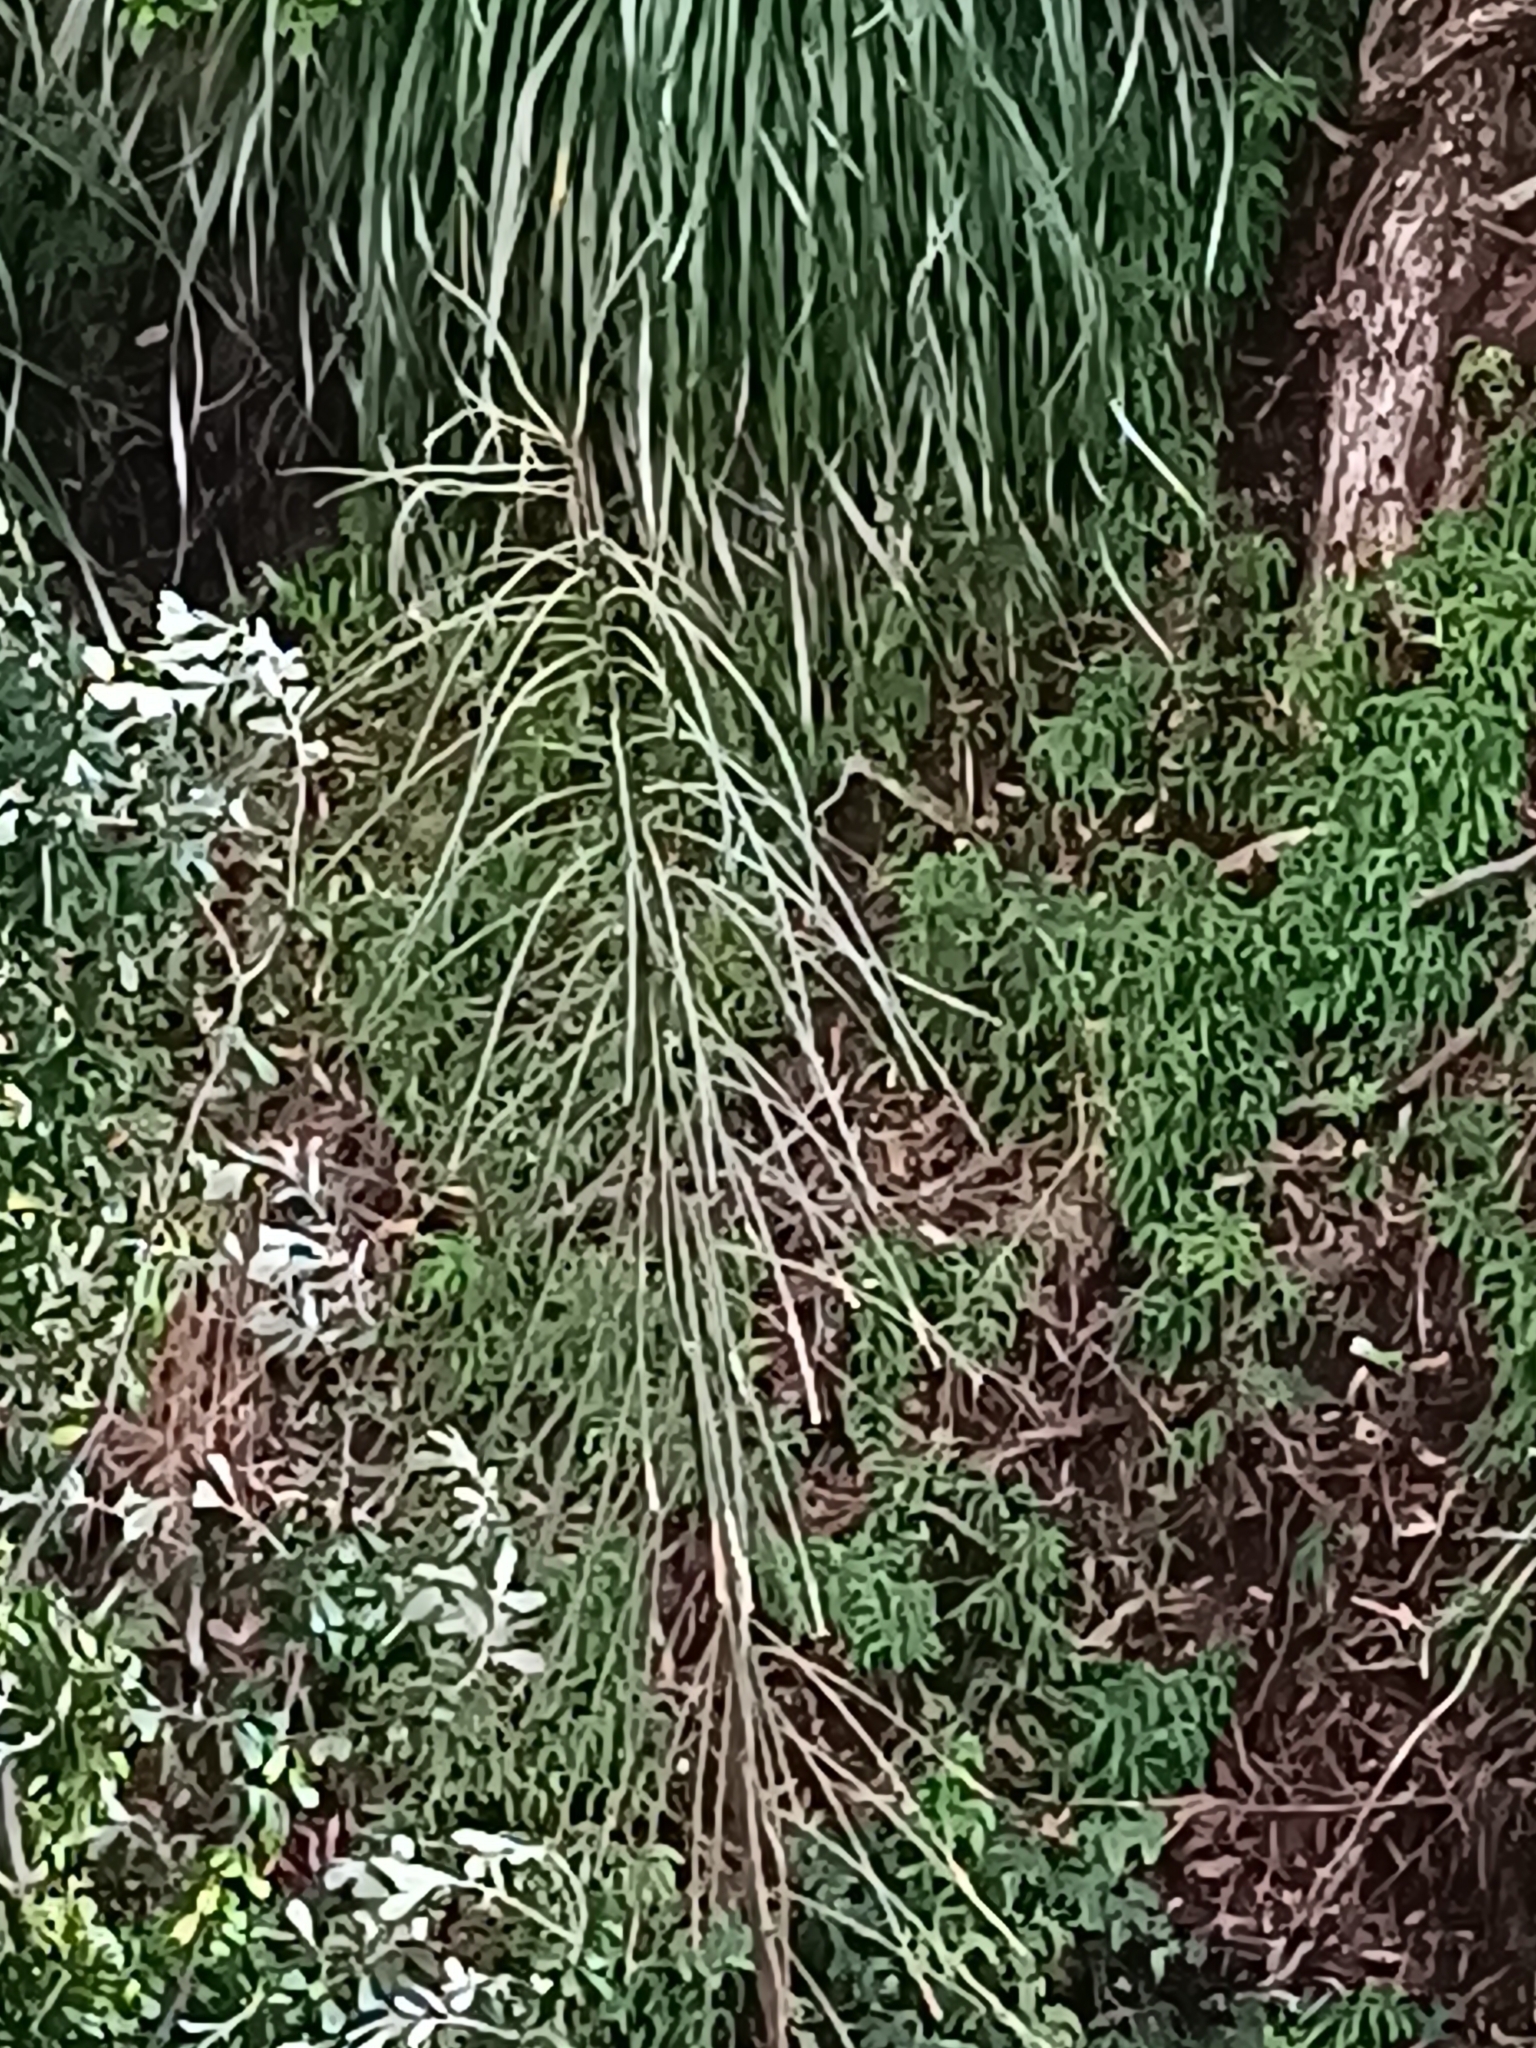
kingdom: Plantae
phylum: Tracheophyta
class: Magnoliopsida
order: Apiales
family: Araliaceae
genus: Pseudopanax
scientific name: Pseudopanax crassifolius
